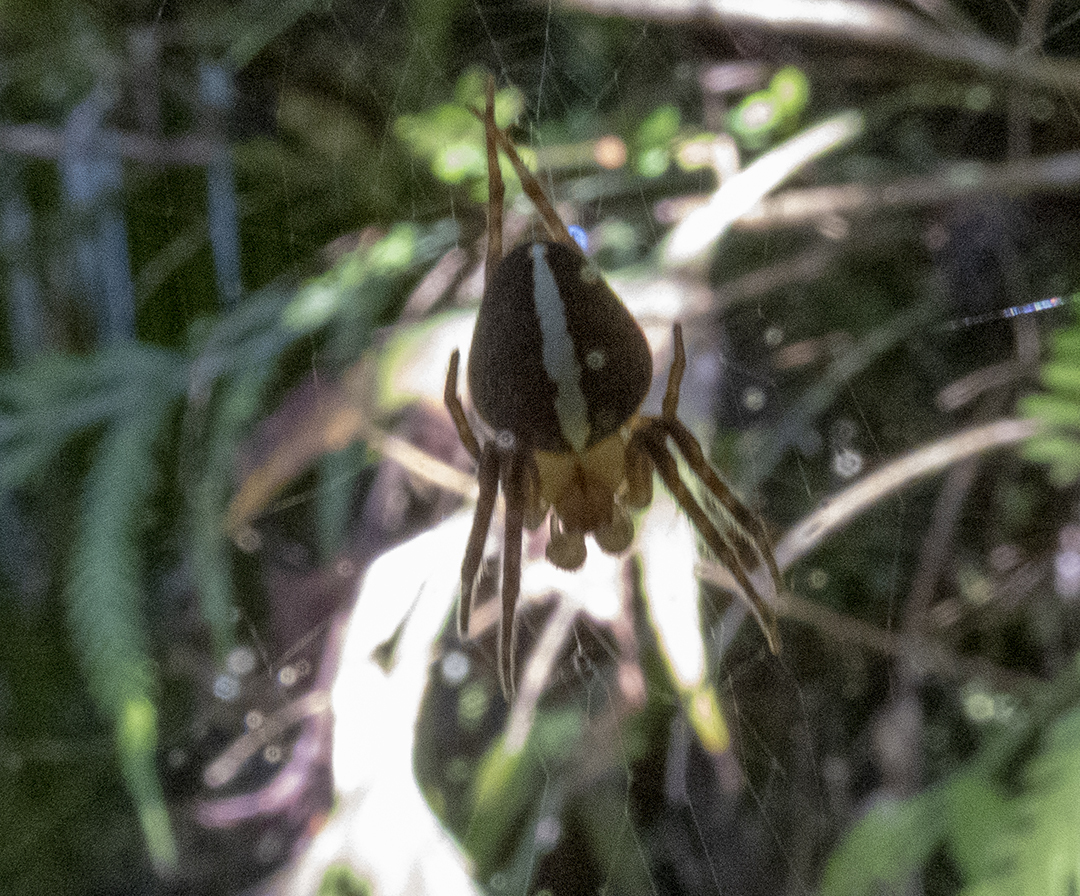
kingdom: Animalia
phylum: Arthropoda
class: Arachnida
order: Araneae
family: Araneidae
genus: Colaranea
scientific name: Colaranea verutum
